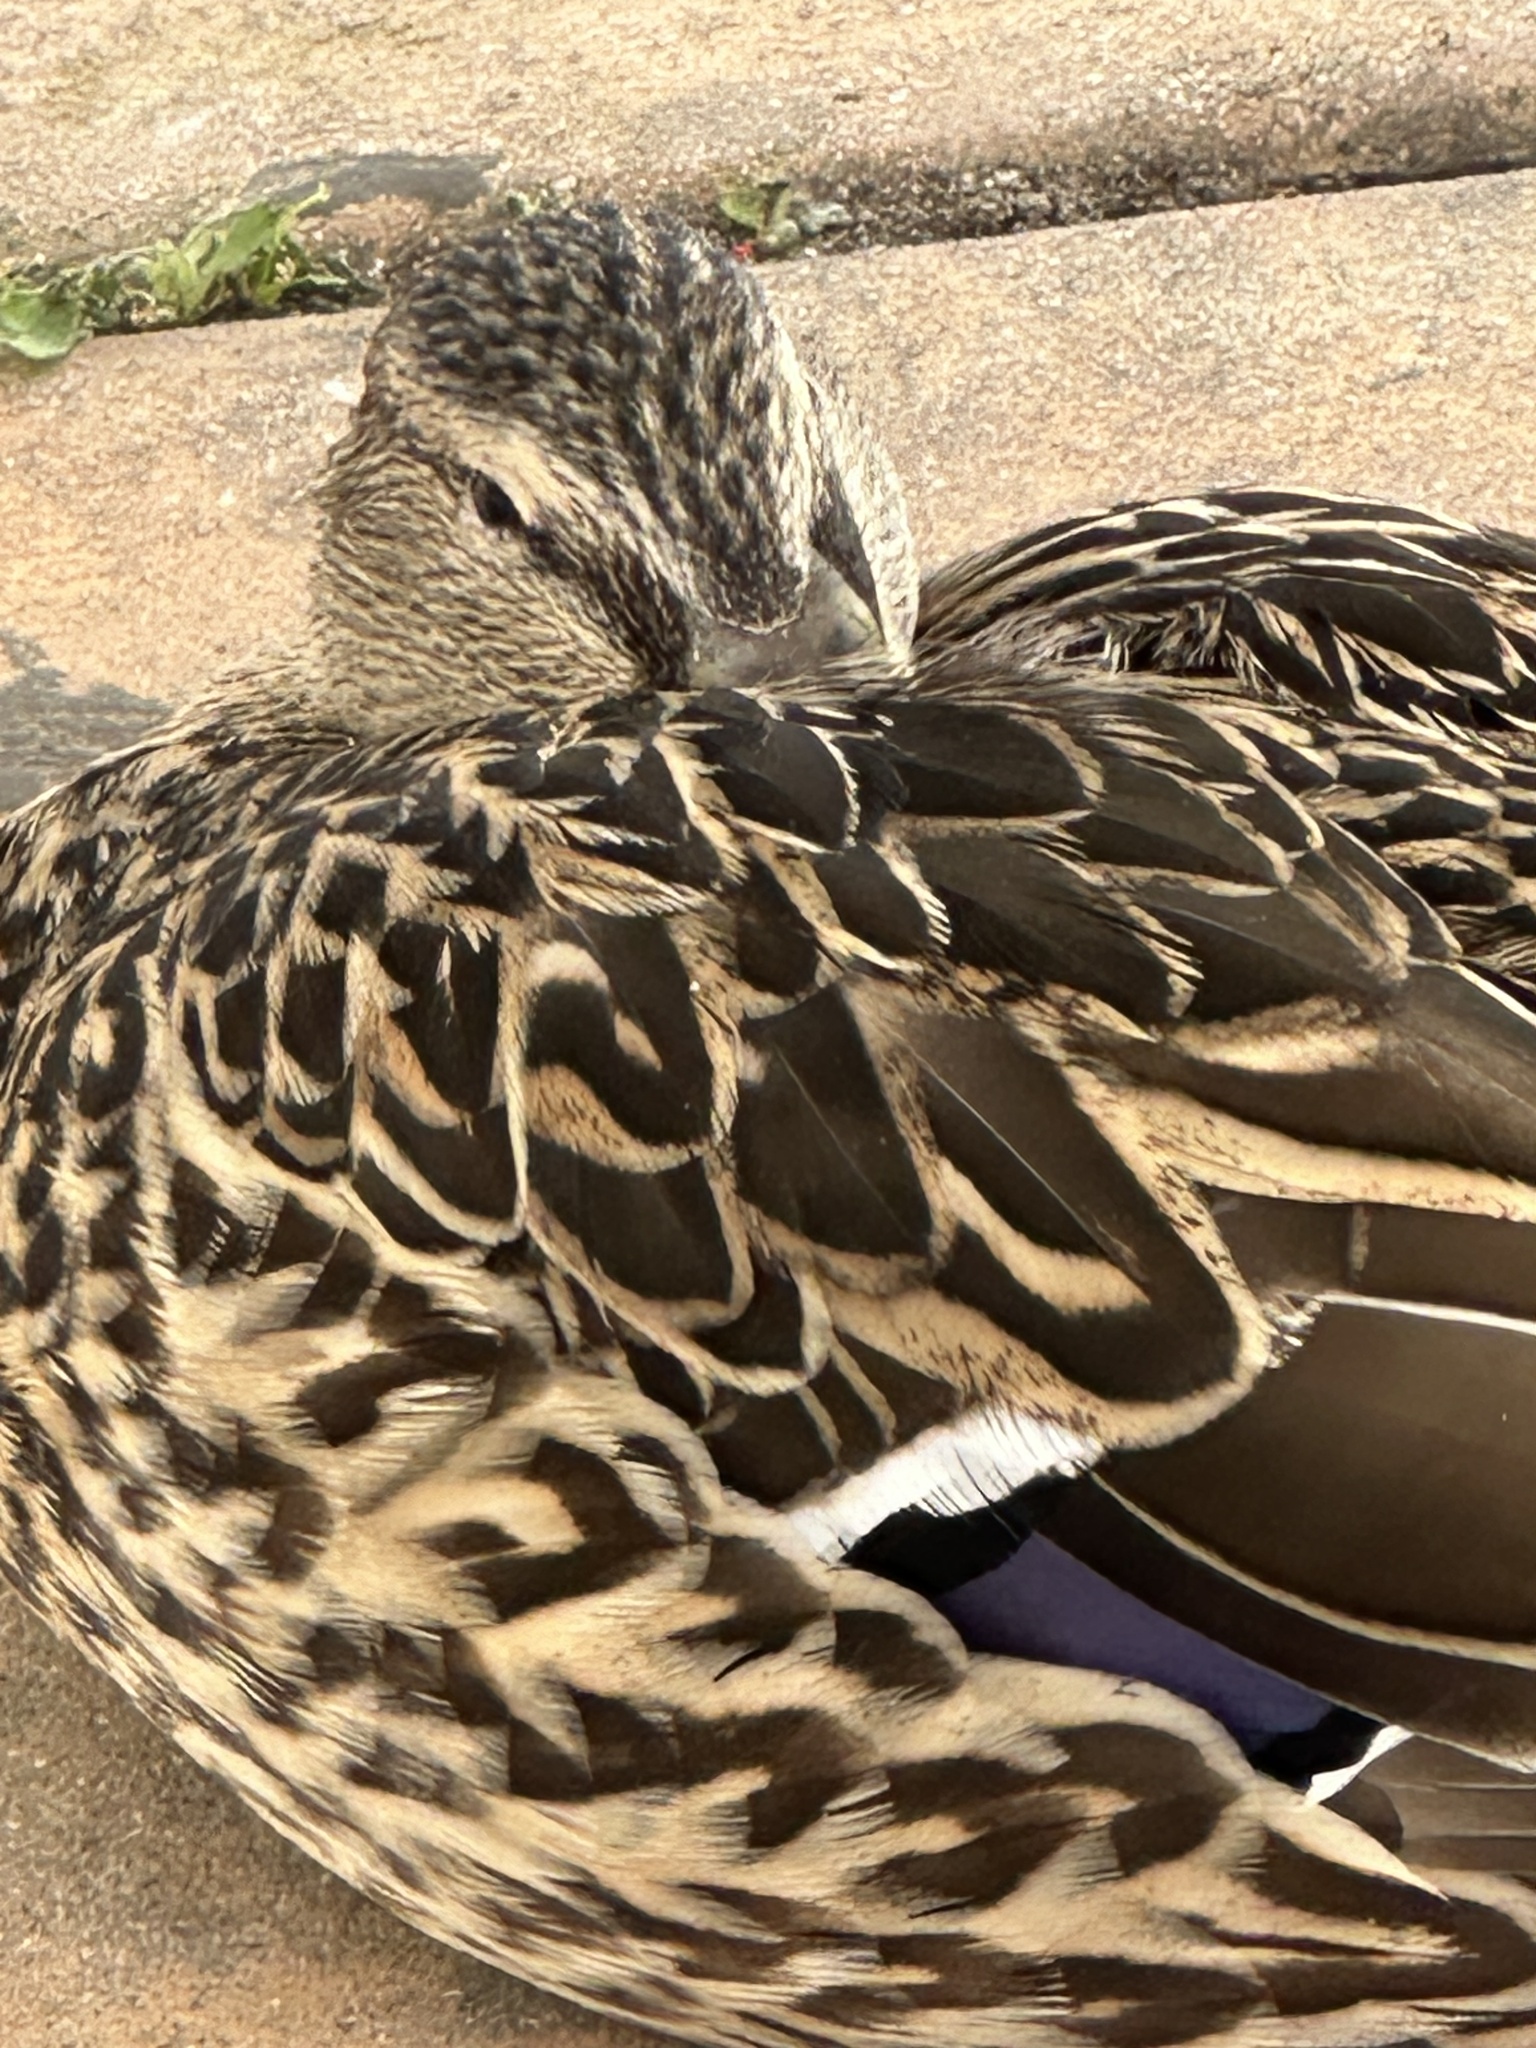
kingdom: Animalia
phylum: Chordata
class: Aves
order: Anseriformes
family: Anatidae
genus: Anas
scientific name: Anas platyrhynchos
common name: Mallard
